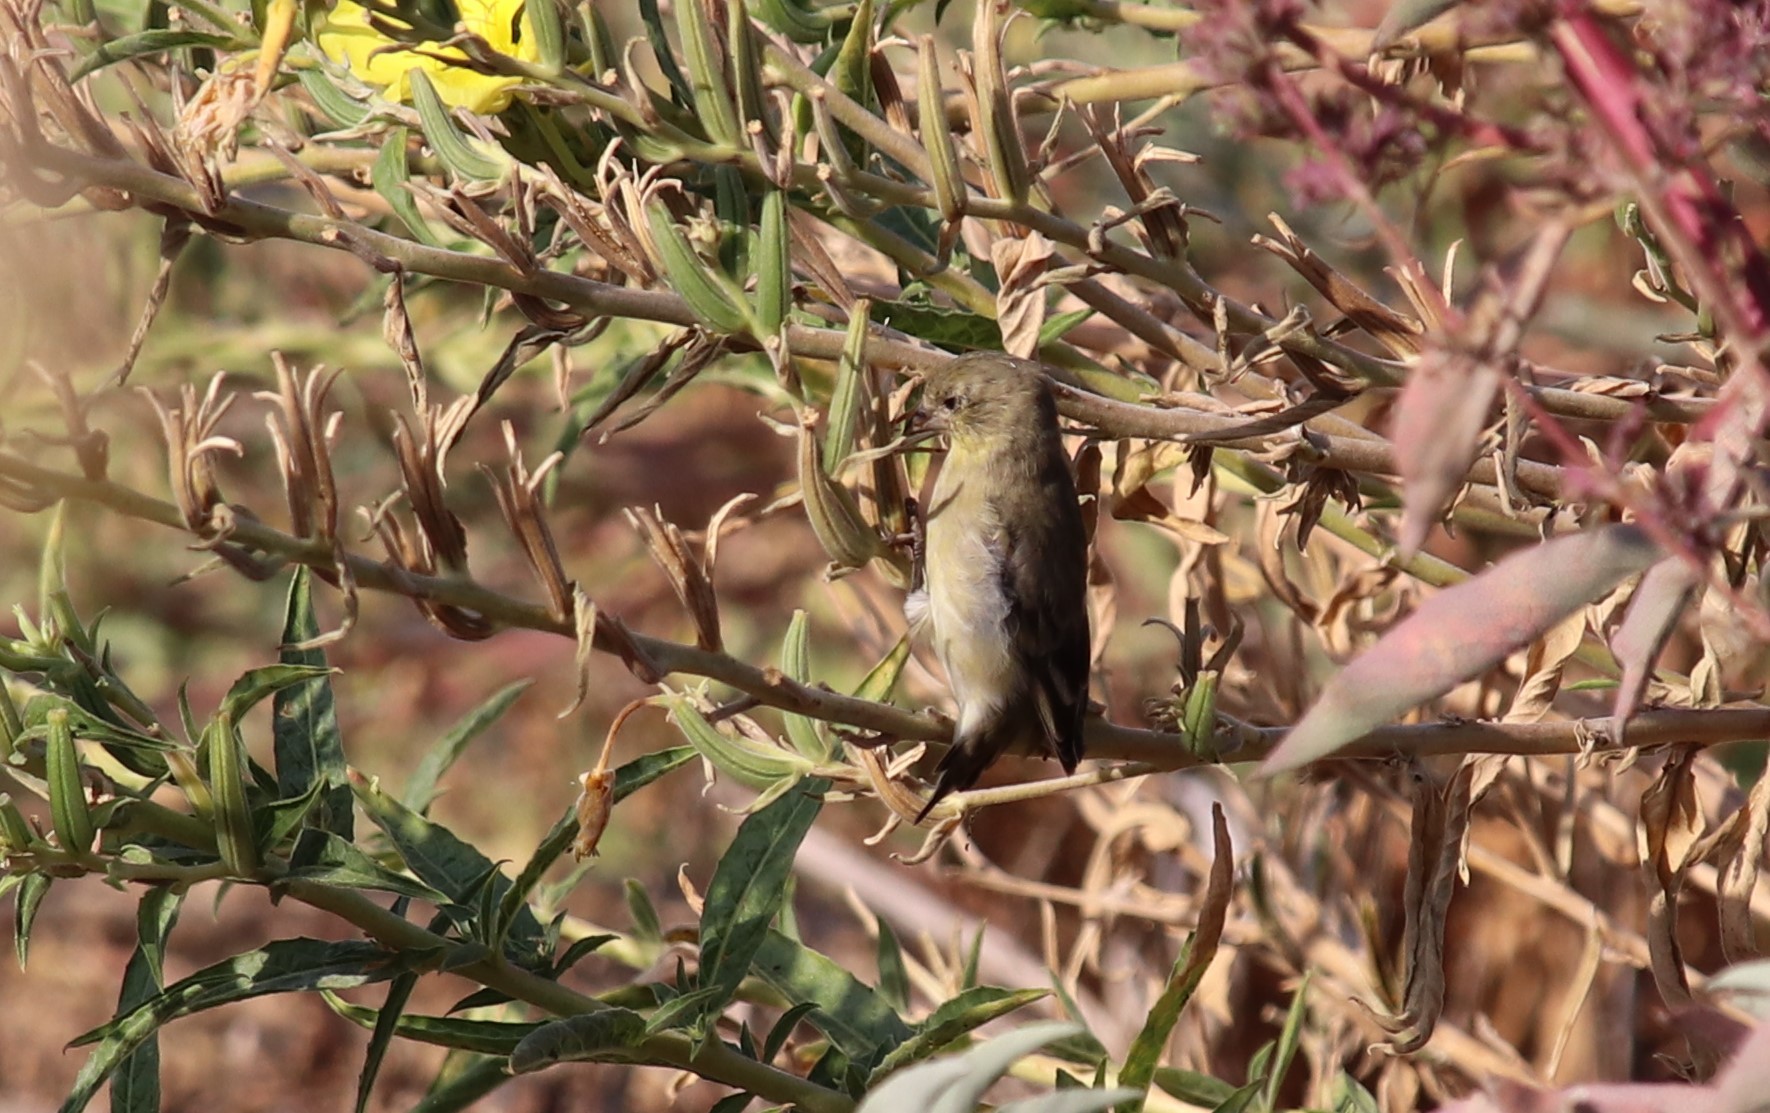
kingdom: Animalia
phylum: Chordata
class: Aves
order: Passeriformes
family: Fringillidae
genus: Spinus
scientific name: Spinus psaltria
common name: Lesser goldfinch
